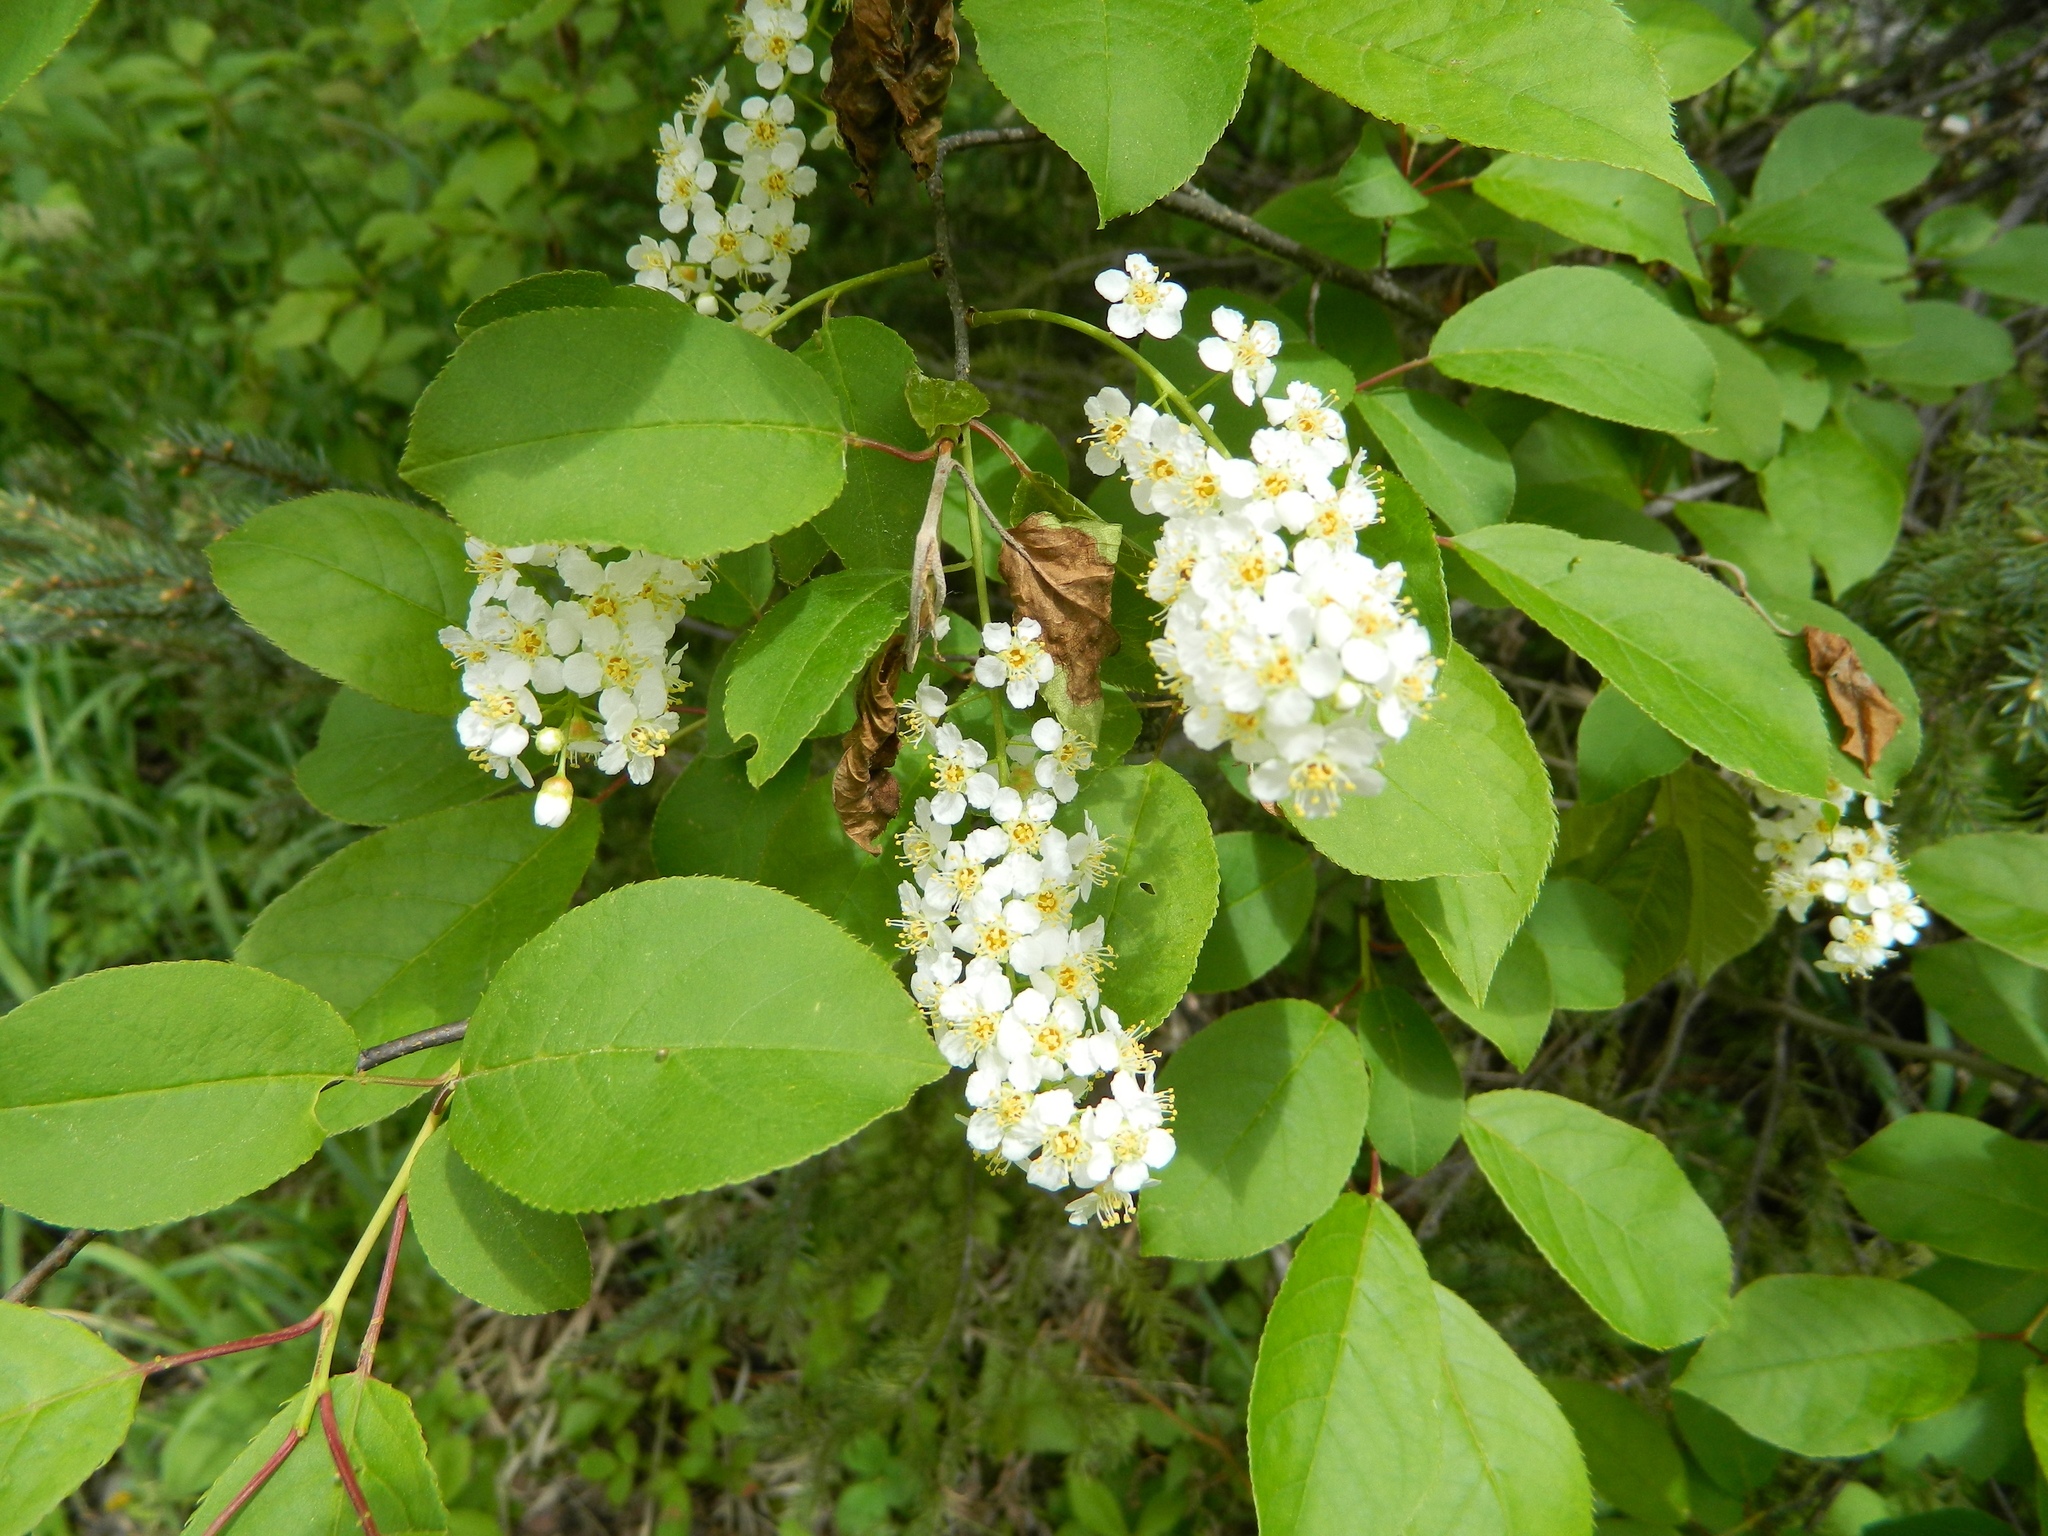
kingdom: Plantae
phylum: Tracheophyta
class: Magnoliopsida
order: Rosales
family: Rosaceae
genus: Prunus
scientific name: Prunus virginiana
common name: Chokecherry
